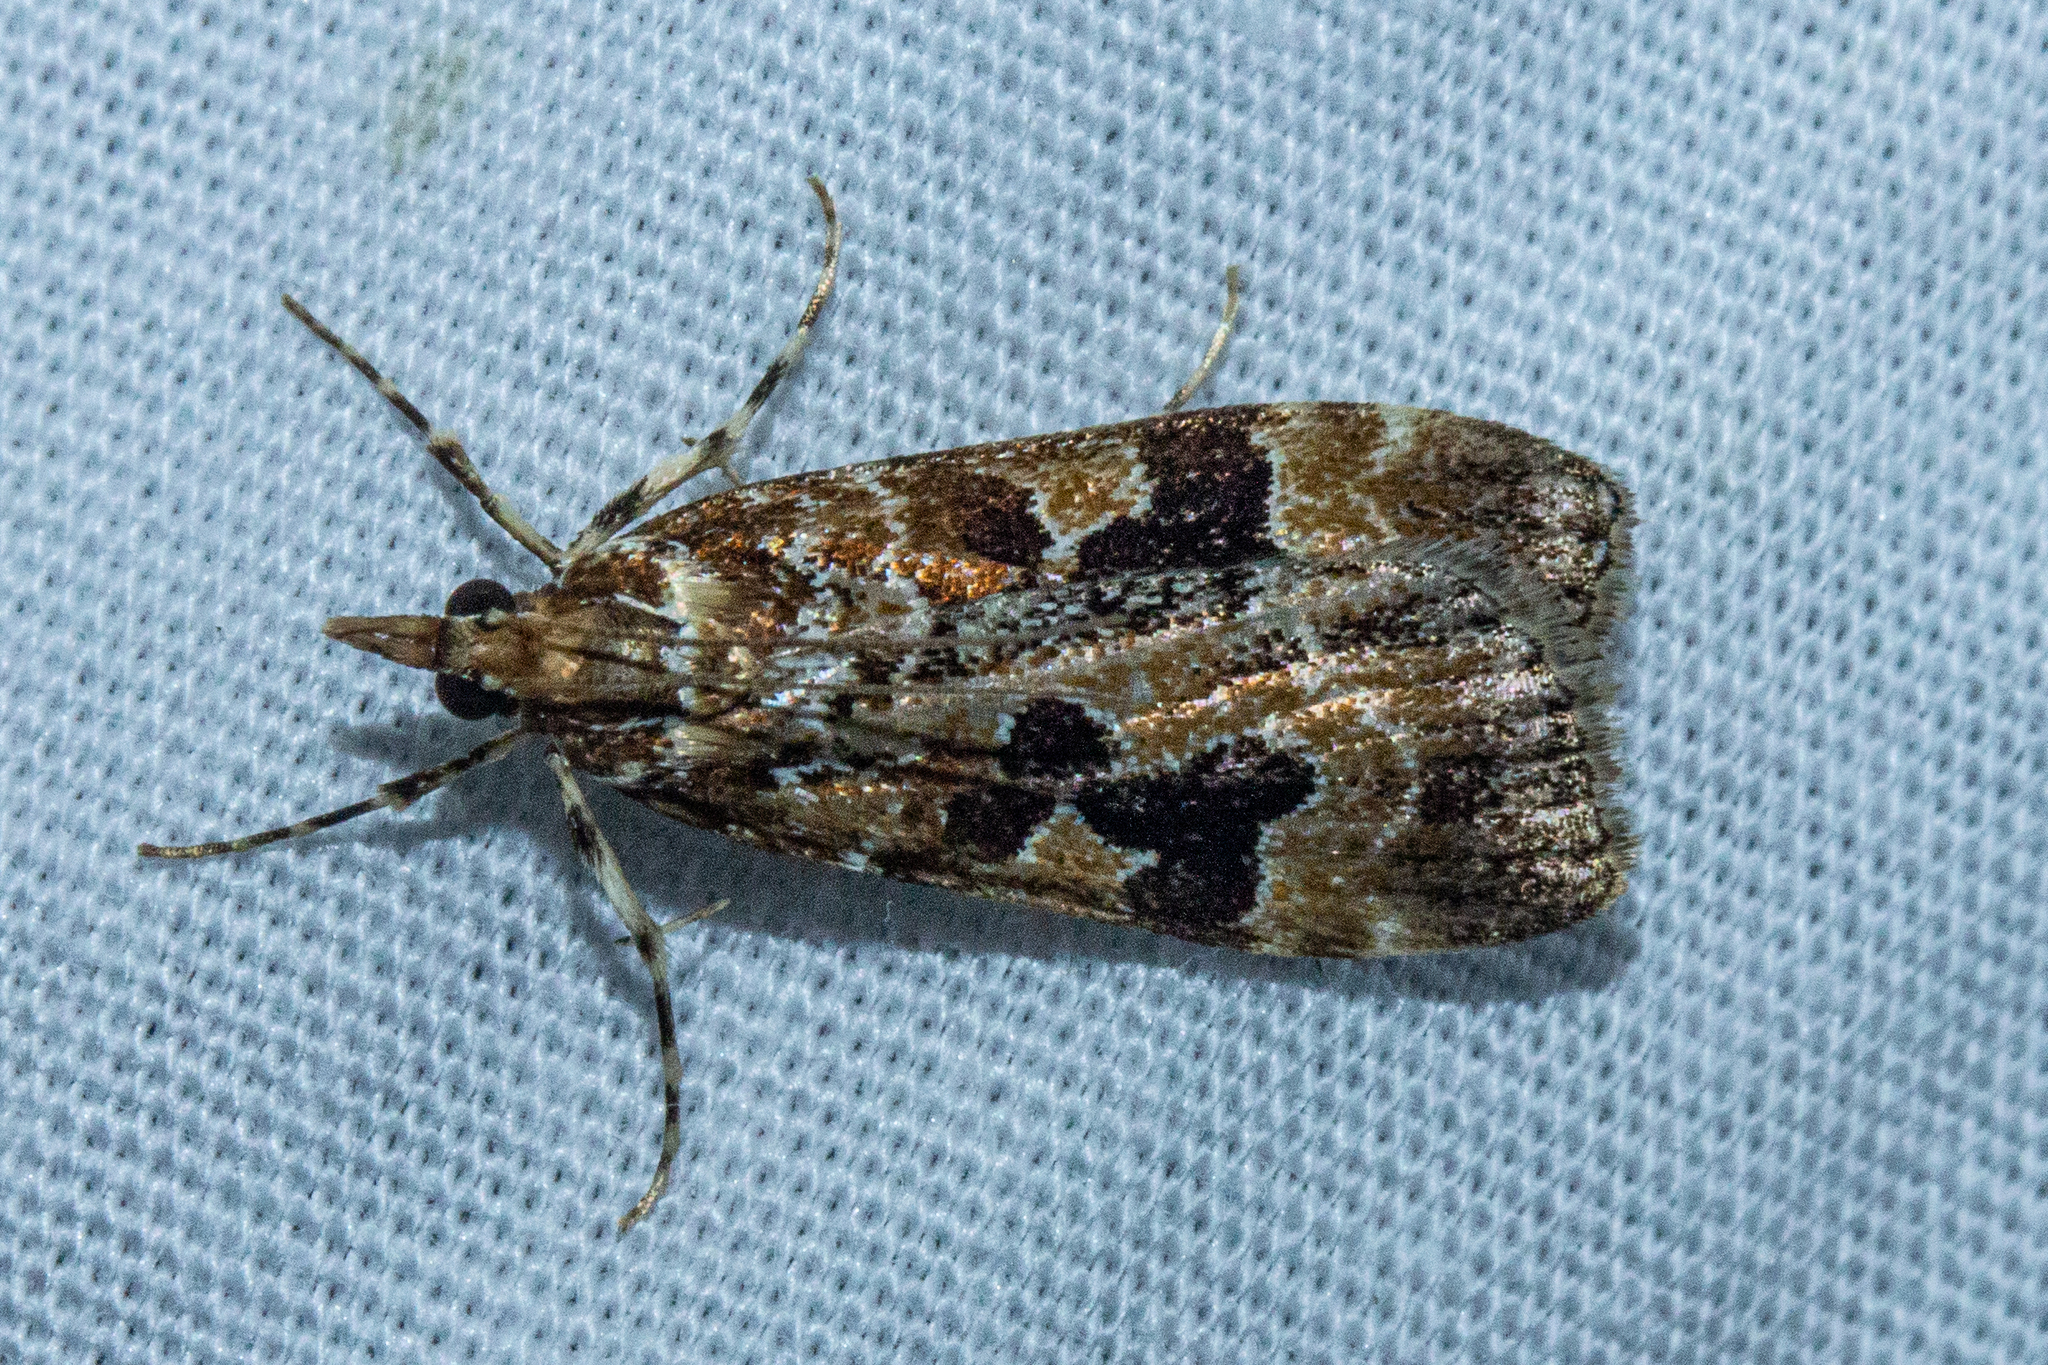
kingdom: Animalia
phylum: Arthropoda
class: Insecta
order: Lepidoptera
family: Crambidae
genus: Scoparia
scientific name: Scoparia ustimacula
